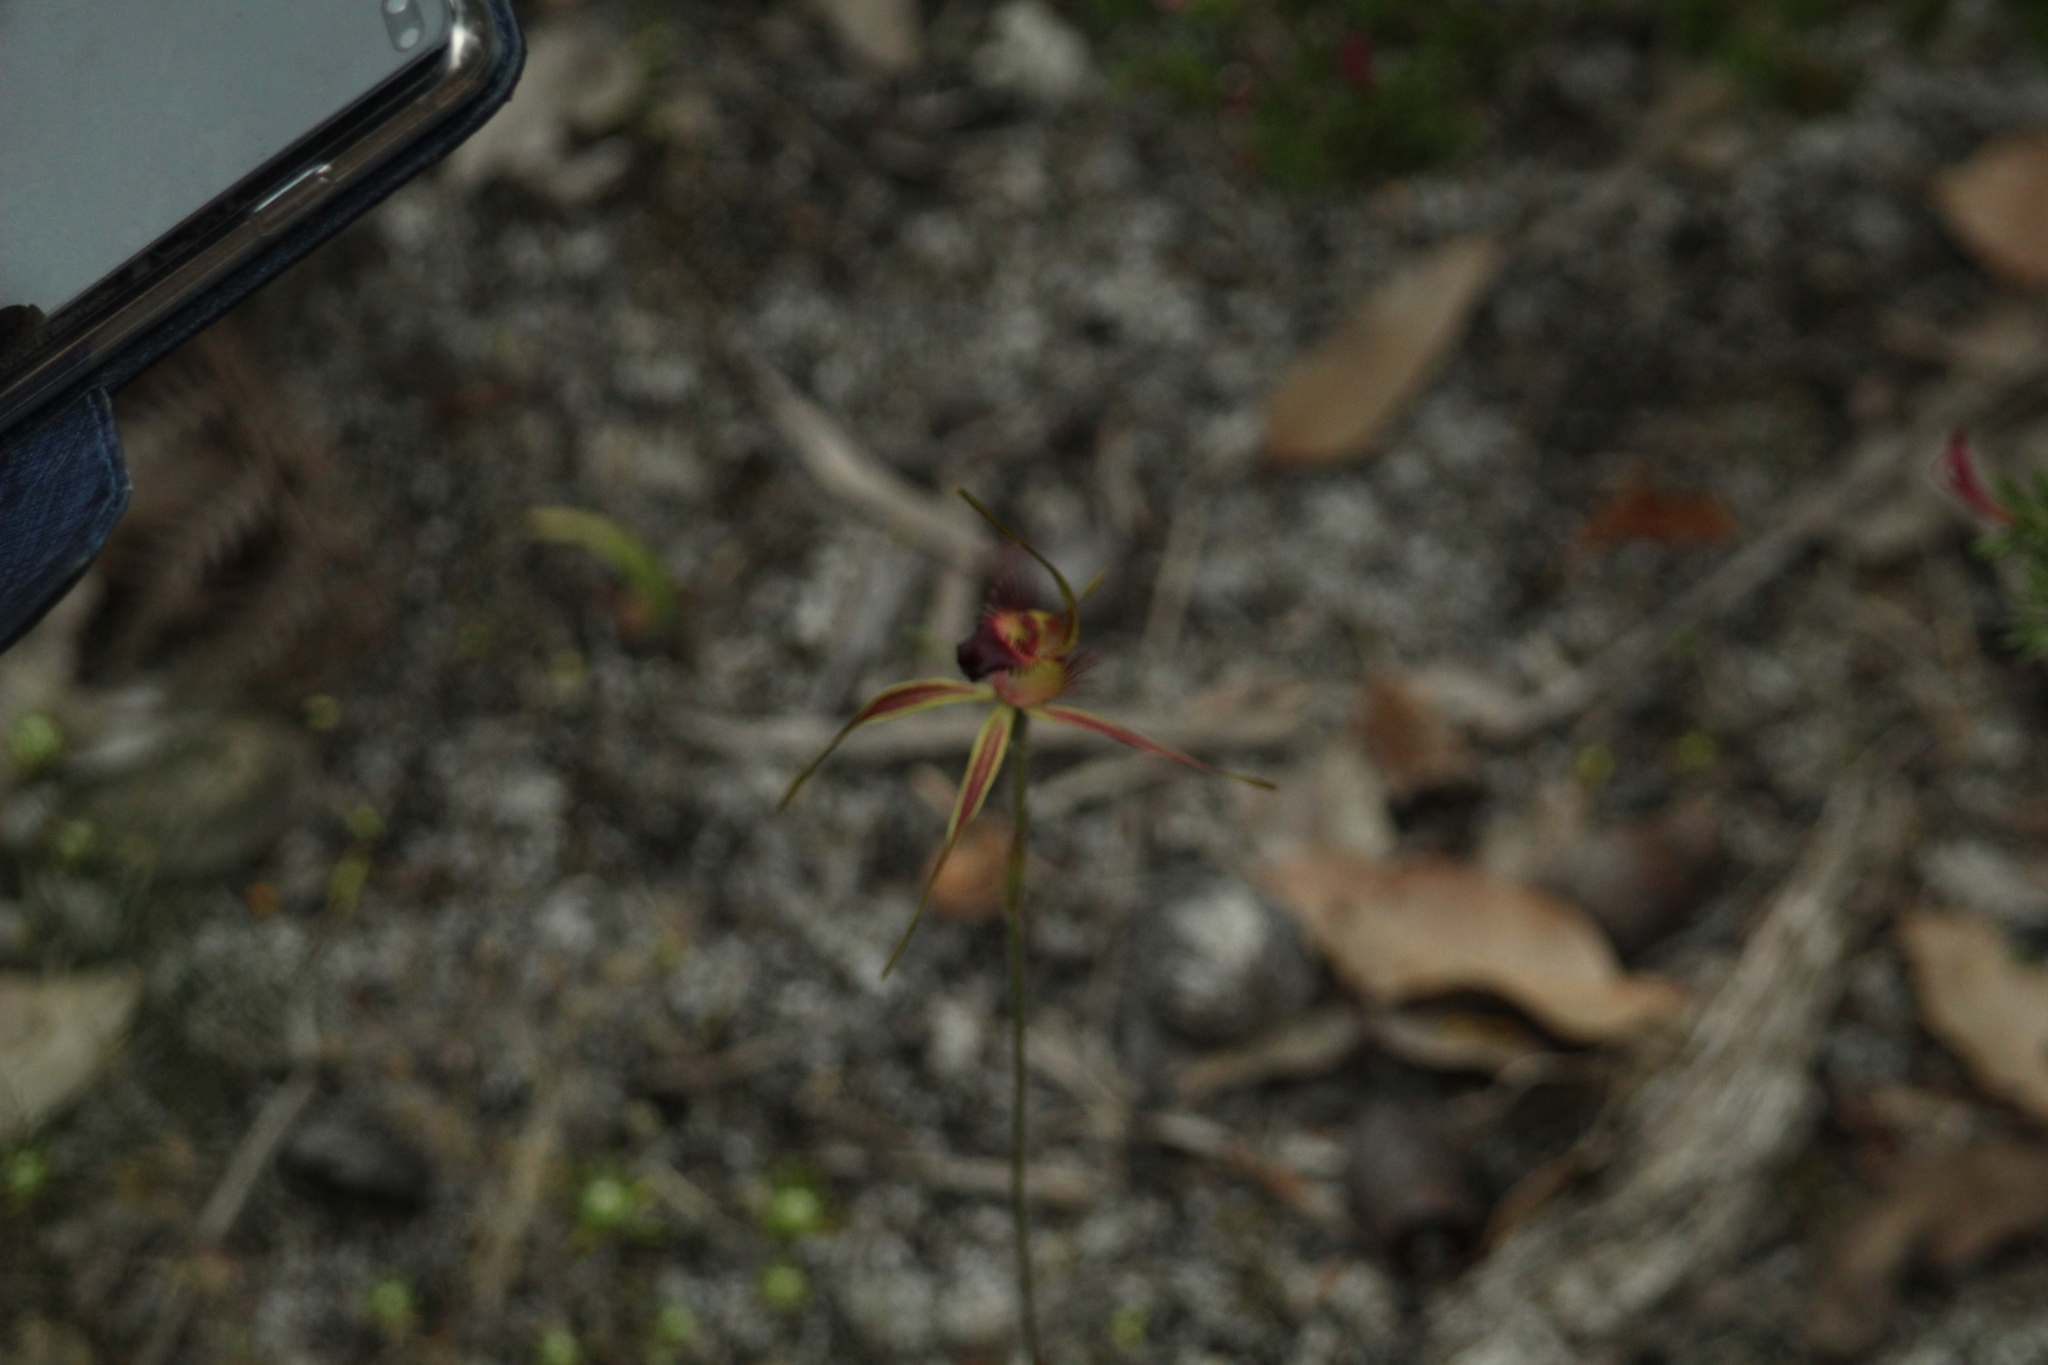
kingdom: Plantae
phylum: Tracheophyta
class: Liliopsida
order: Asparagales
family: Orchidaceae
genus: Caladenia
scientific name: Caladenia brownii
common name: Kari spider orchid
